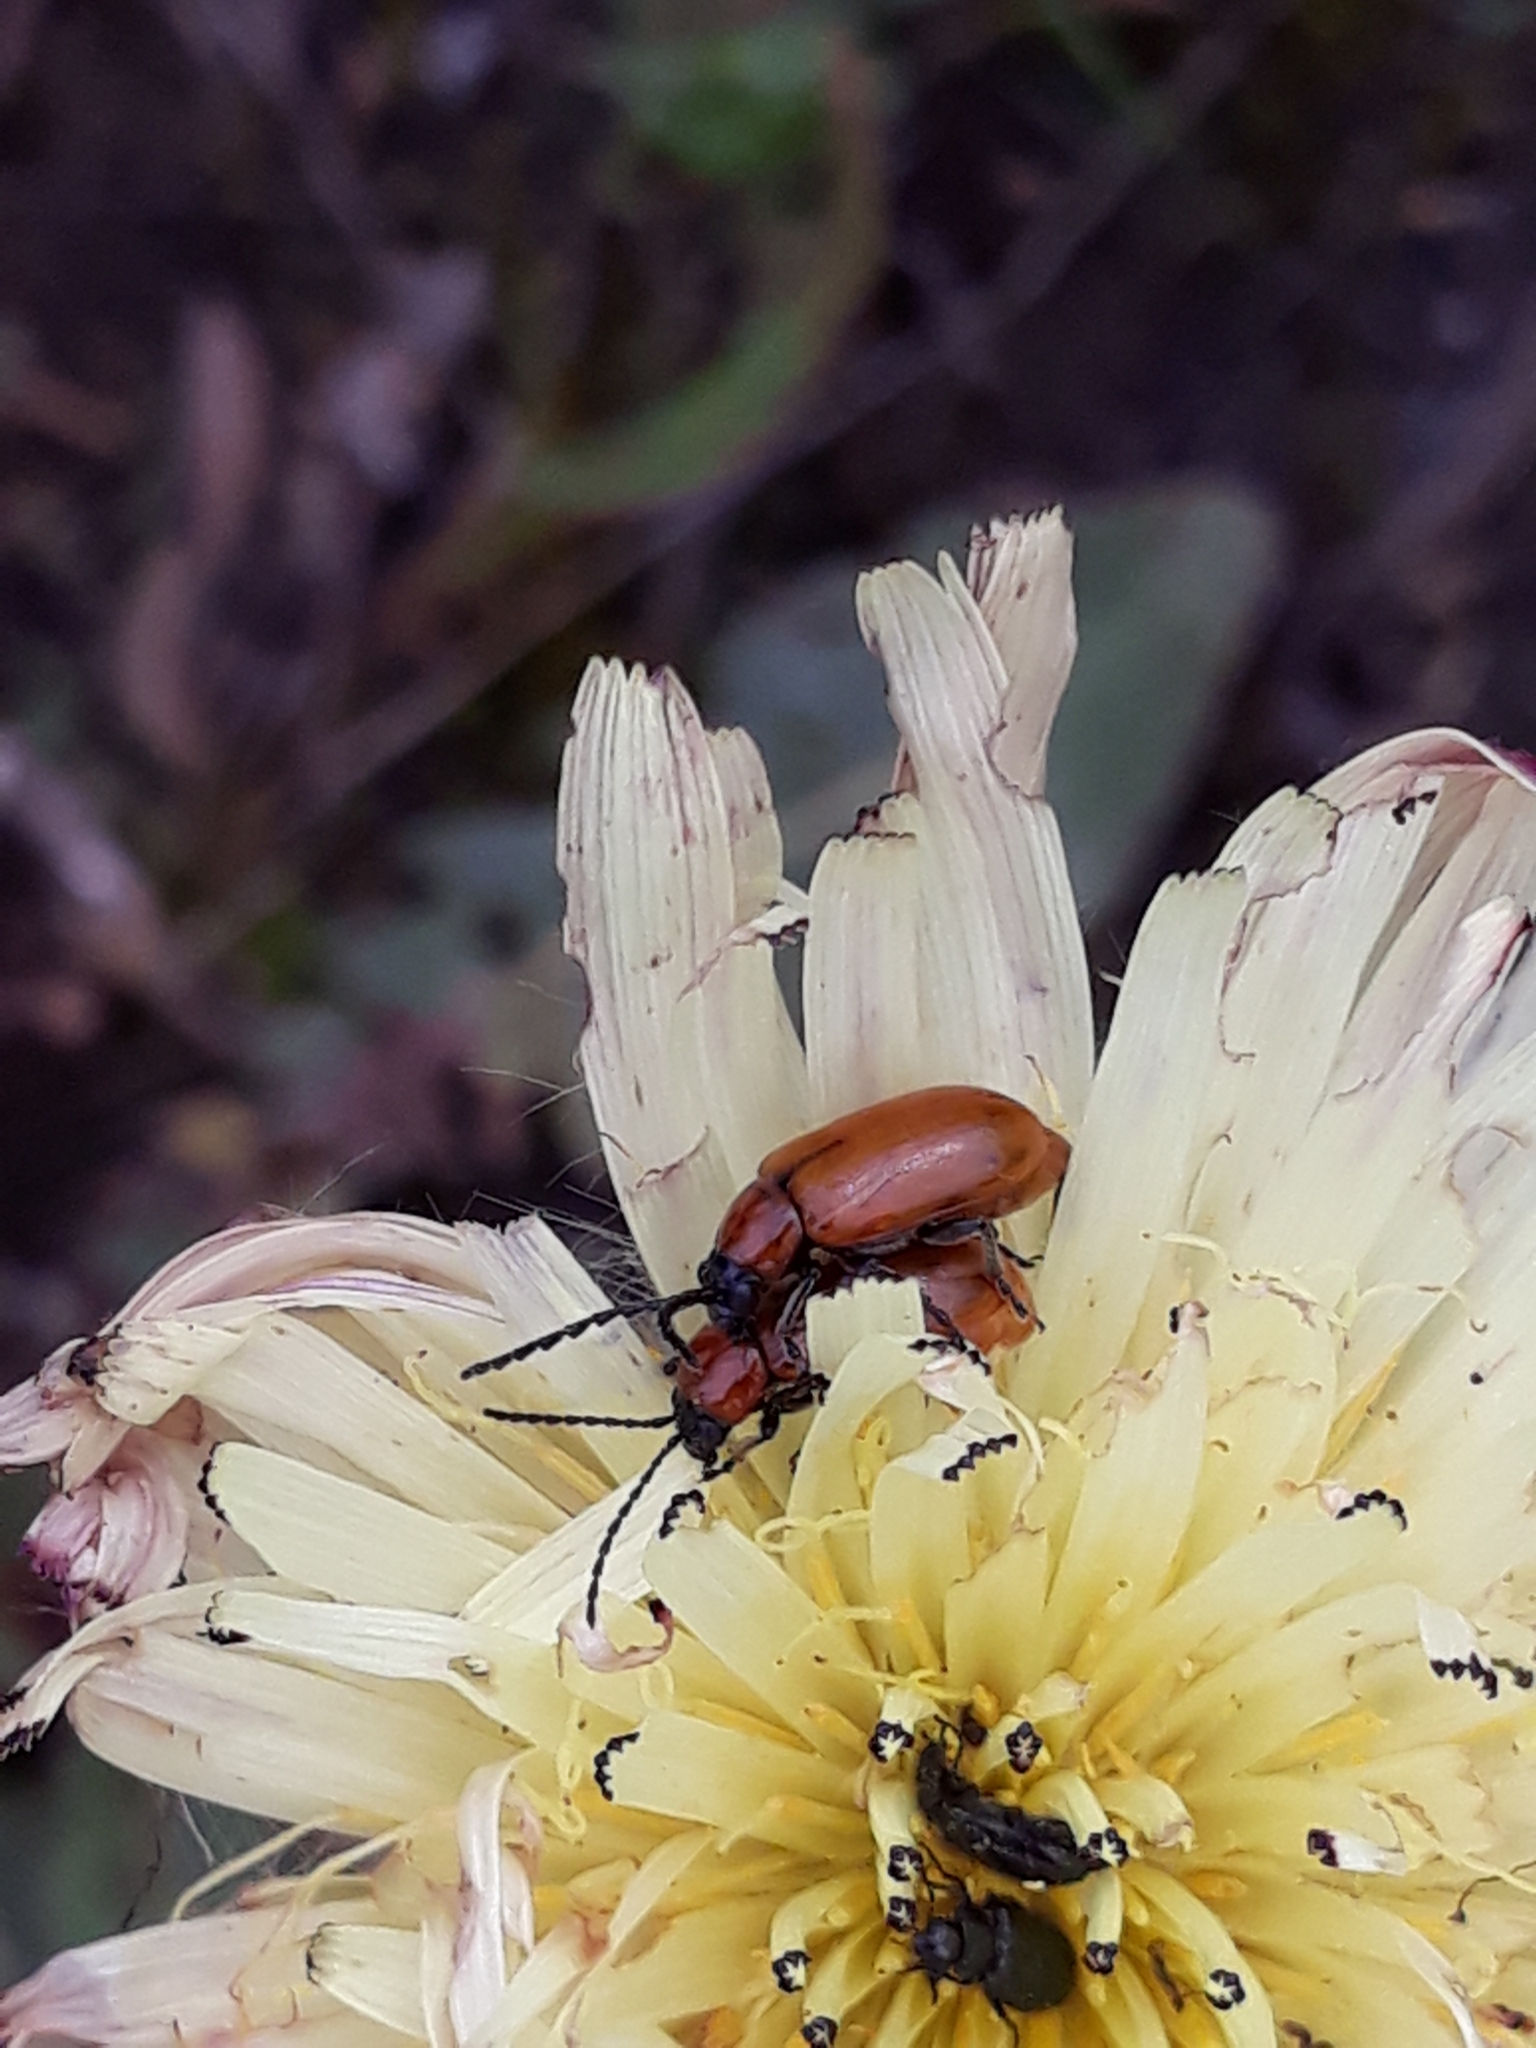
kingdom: Animalia
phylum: Arthropoda
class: Insecta
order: Coleoptera
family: Chrysomelidae
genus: Exosoma
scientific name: Exosoma lusitanicum
